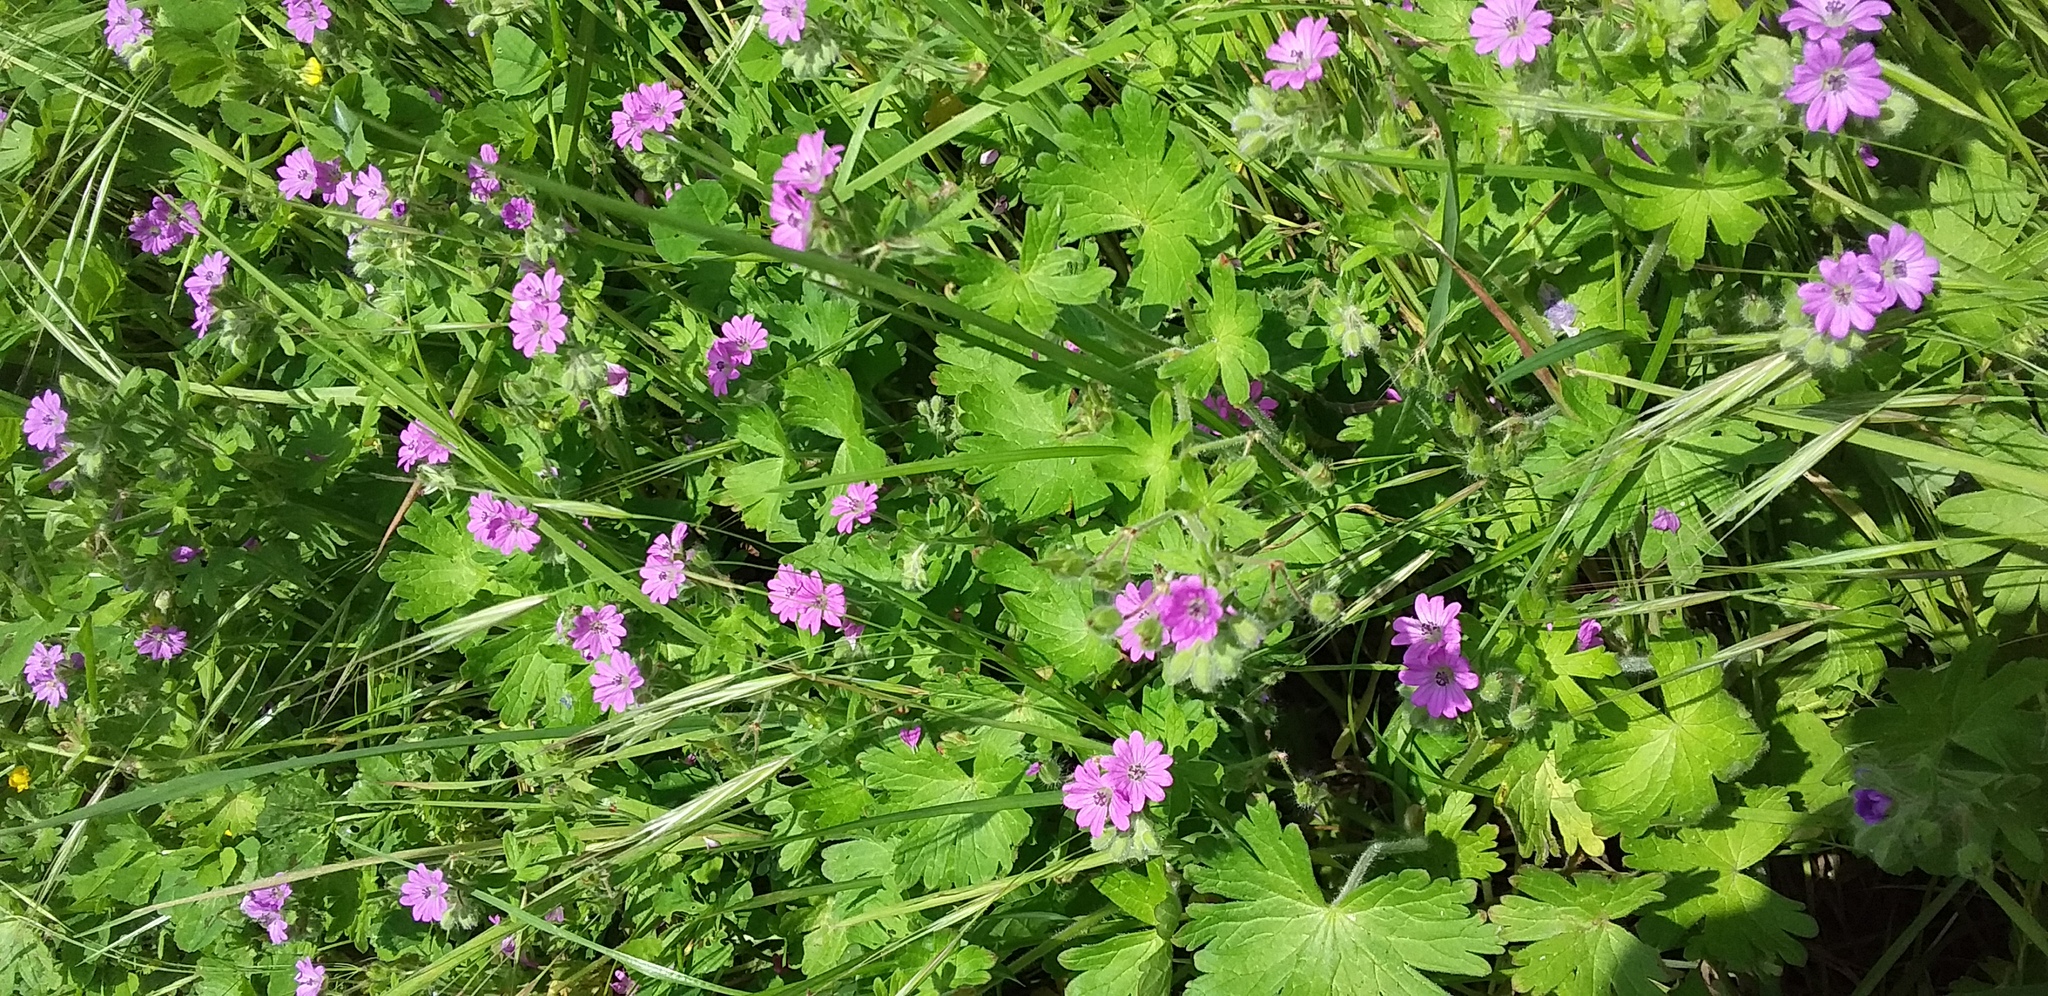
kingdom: Plantae
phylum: Tracheophyta
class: Magnoliopsida
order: Geraniales
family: Geraniaceae
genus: Geranium
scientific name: Geranium pyrenaicum
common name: Hedgerow crane's-bill
